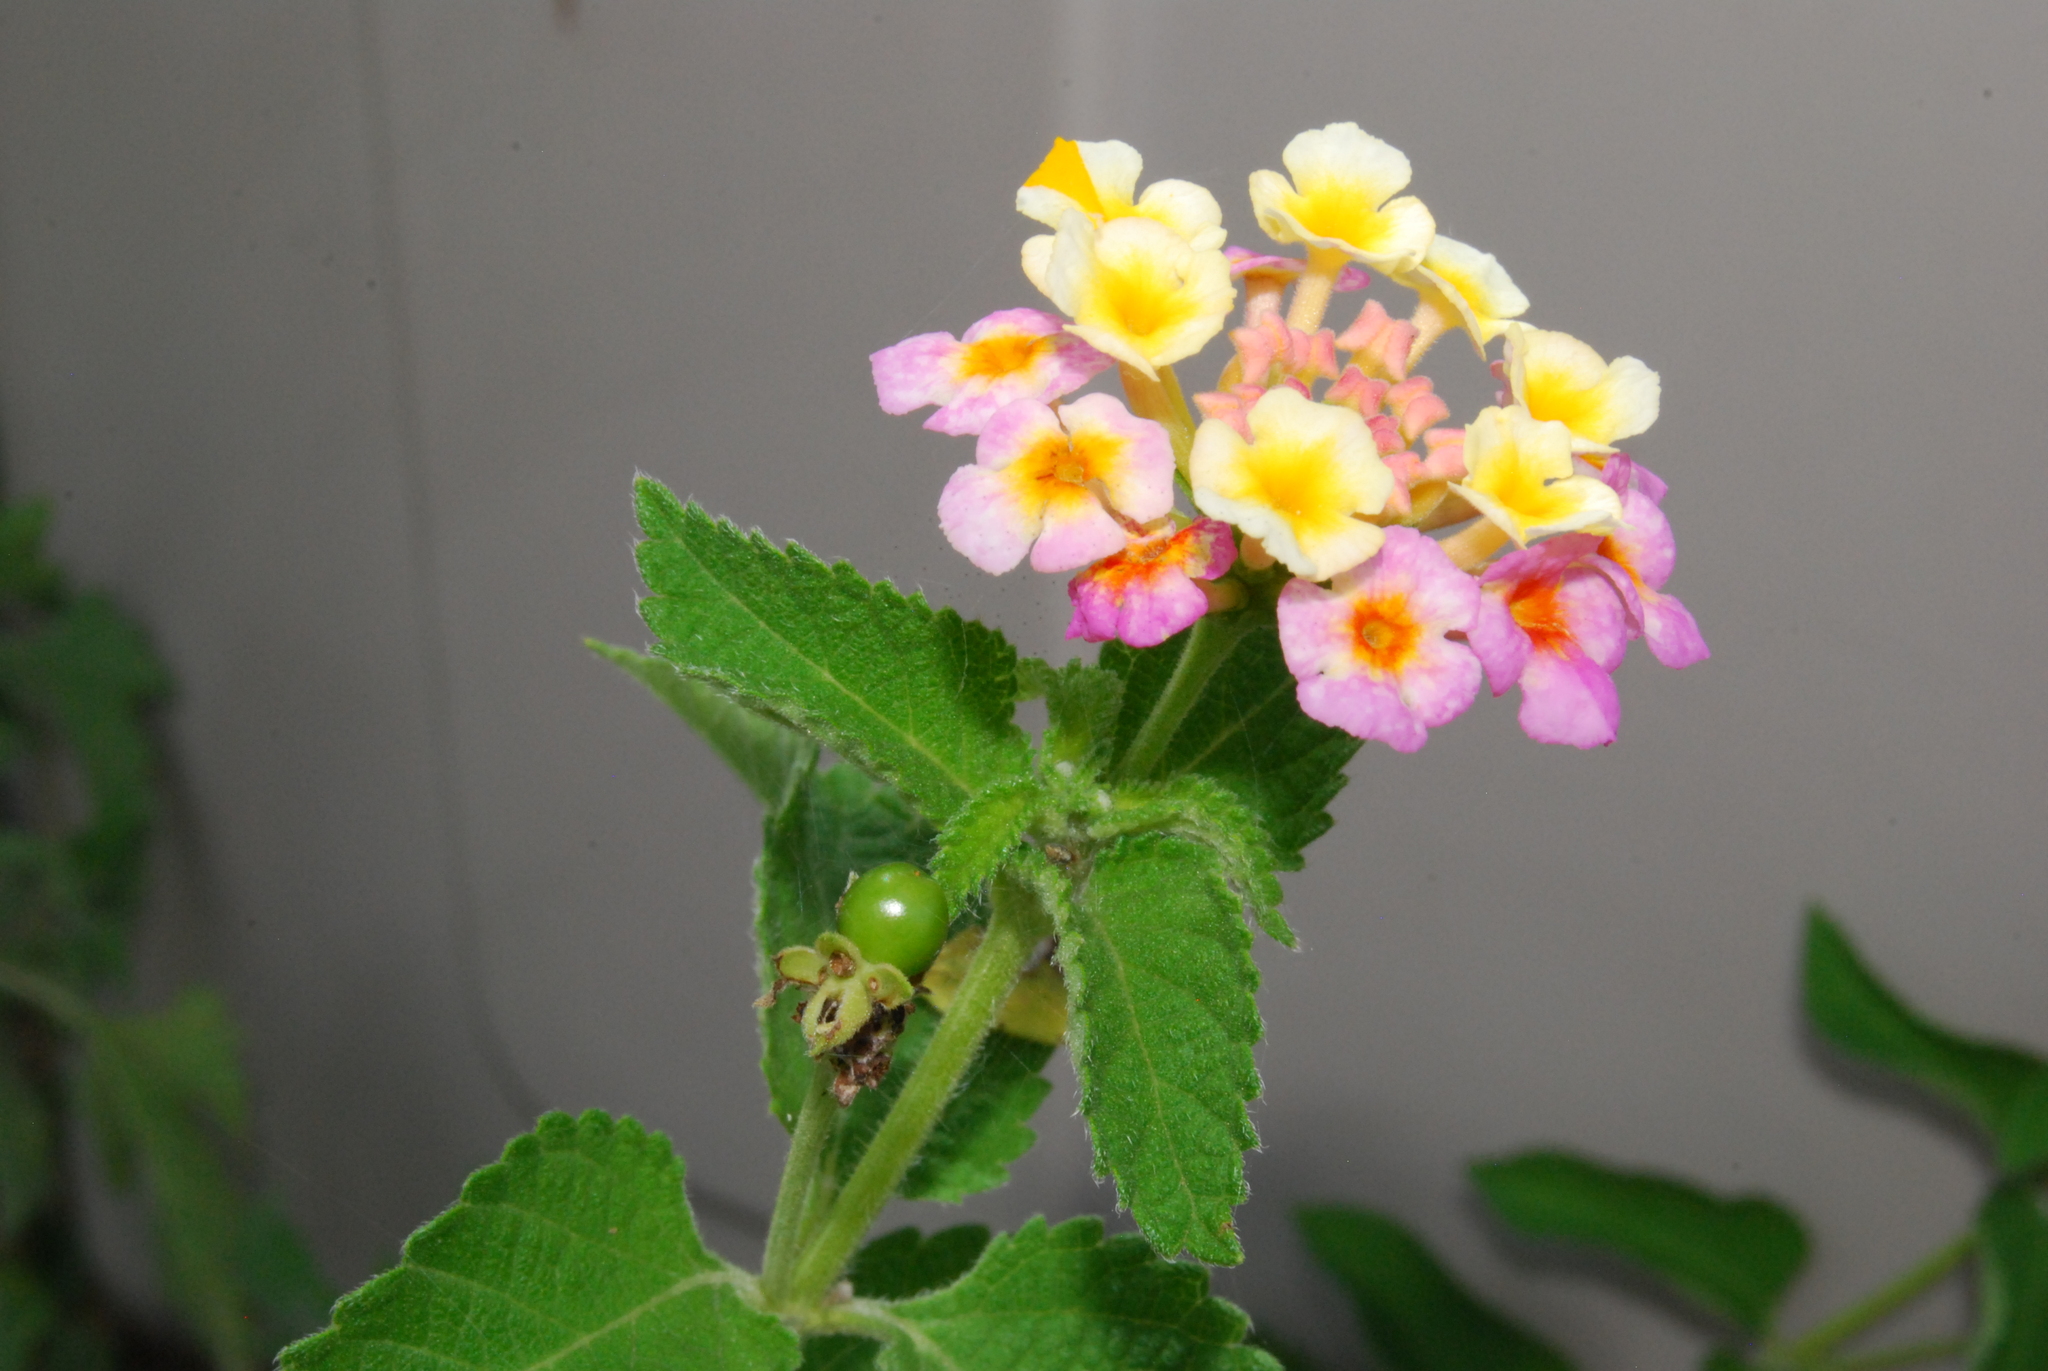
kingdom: Plantae
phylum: Tracheophyta
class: Magnoliopsida
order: Lamiales
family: Verbenaceae
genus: Lantana
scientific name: Lantana strigocamara
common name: Lantana
